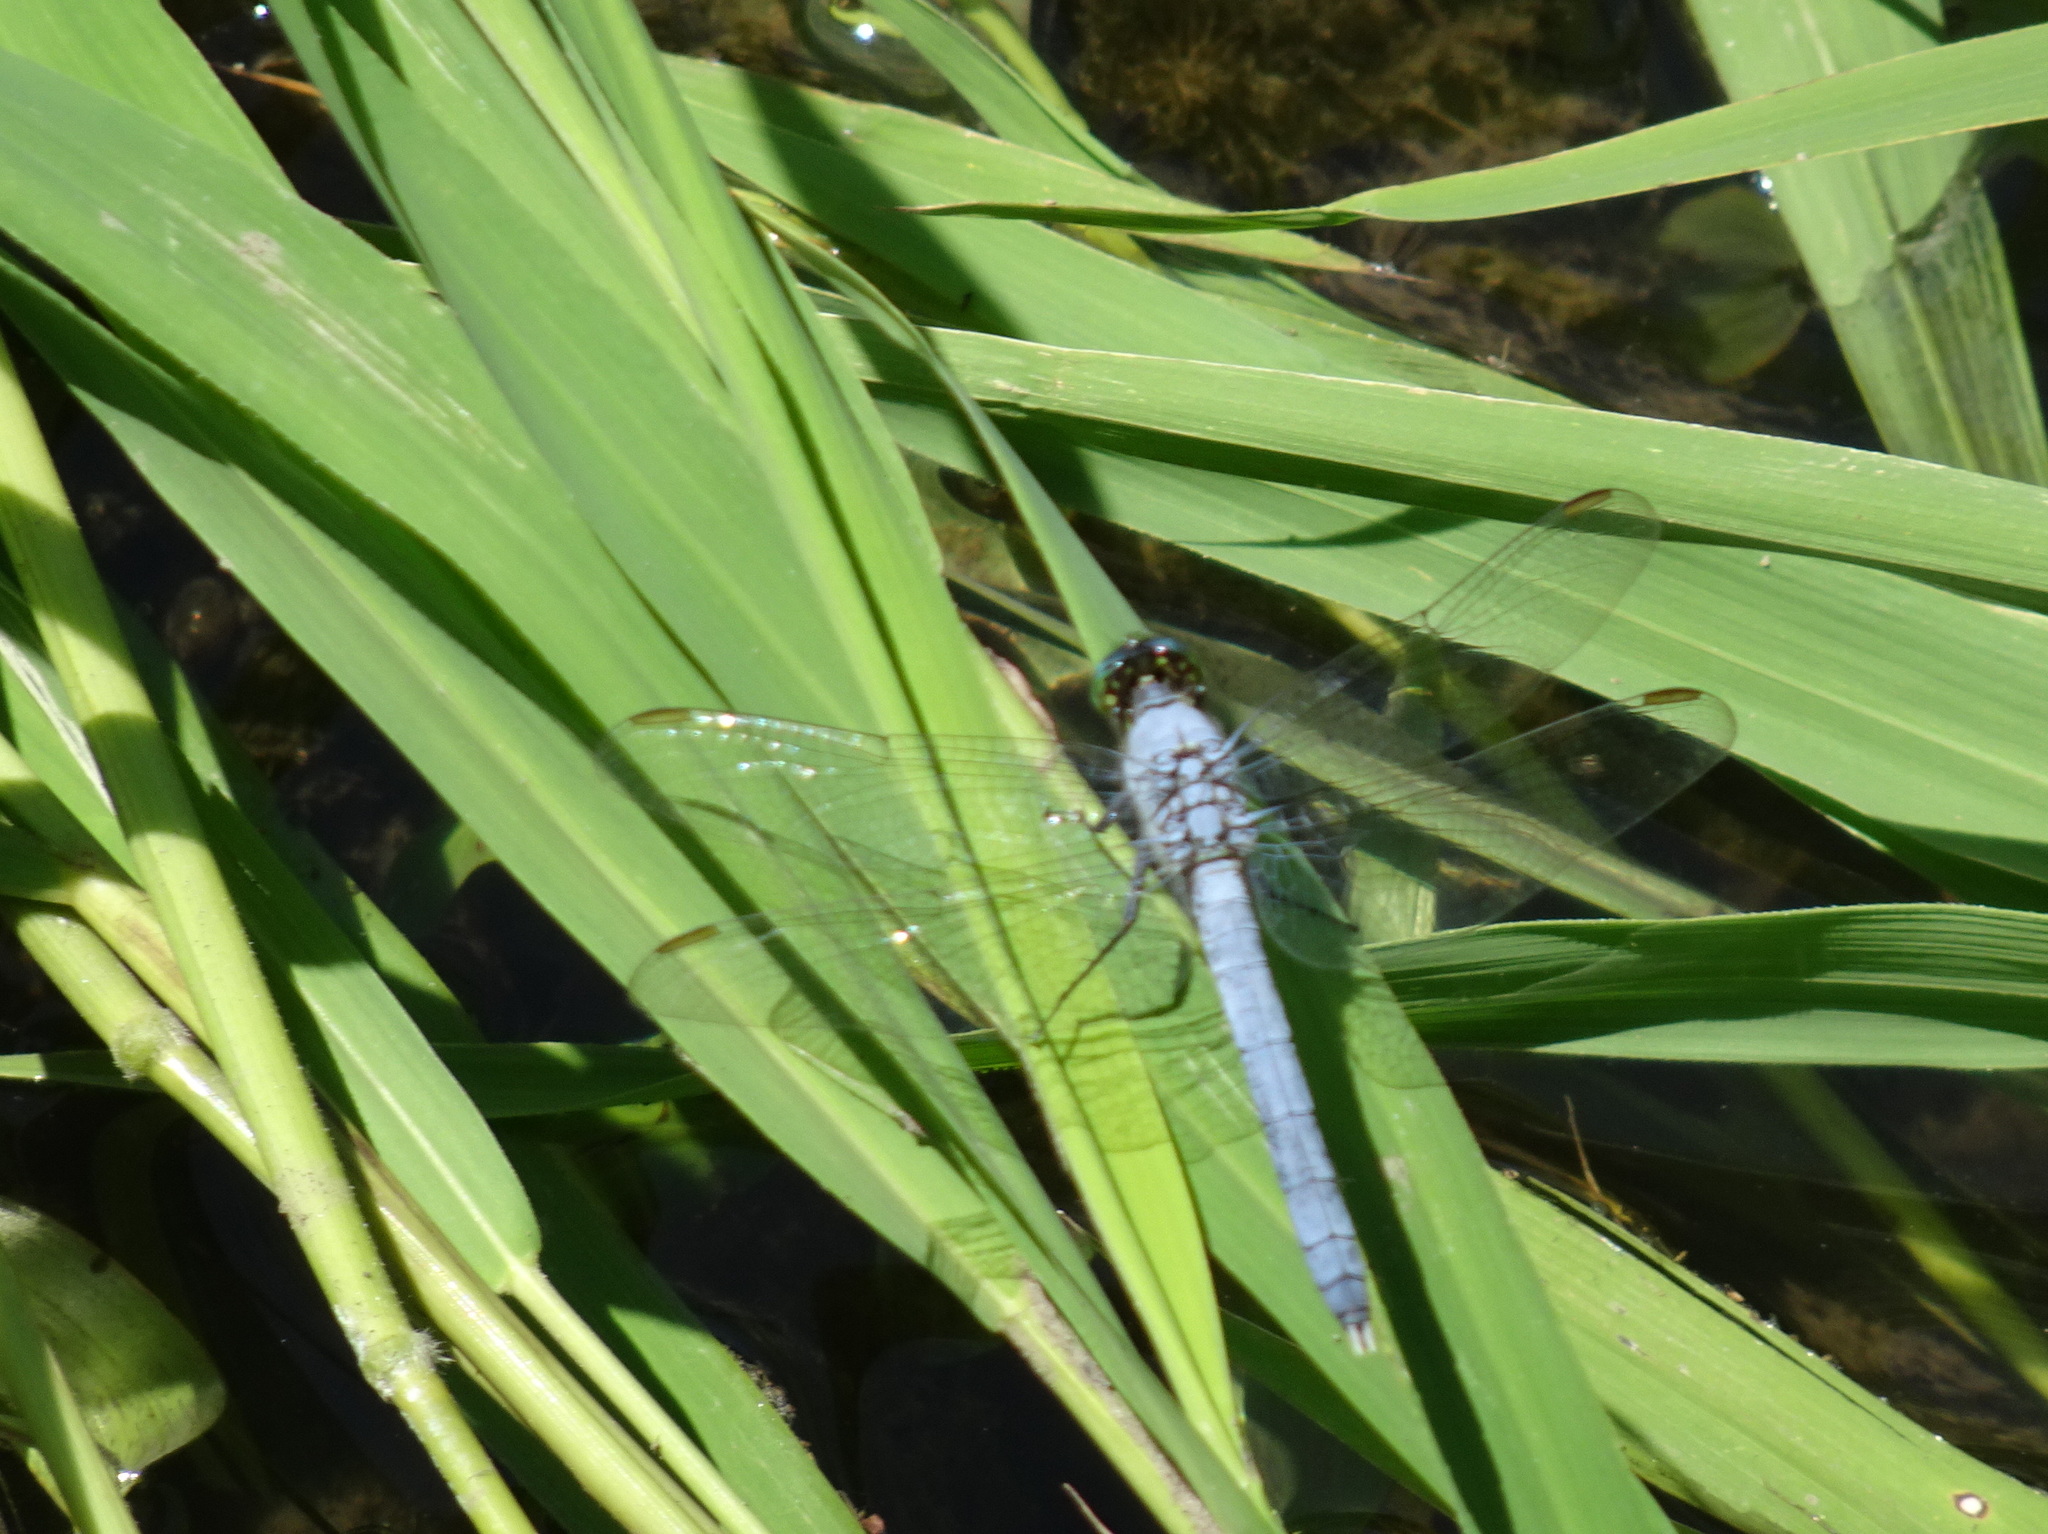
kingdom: Animalia
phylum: Arthropoda
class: Insecta
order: Odonata
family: Libellulidae
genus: Erythemis
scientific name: Erythemis simplicicollis
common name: Eastern pondhawk
